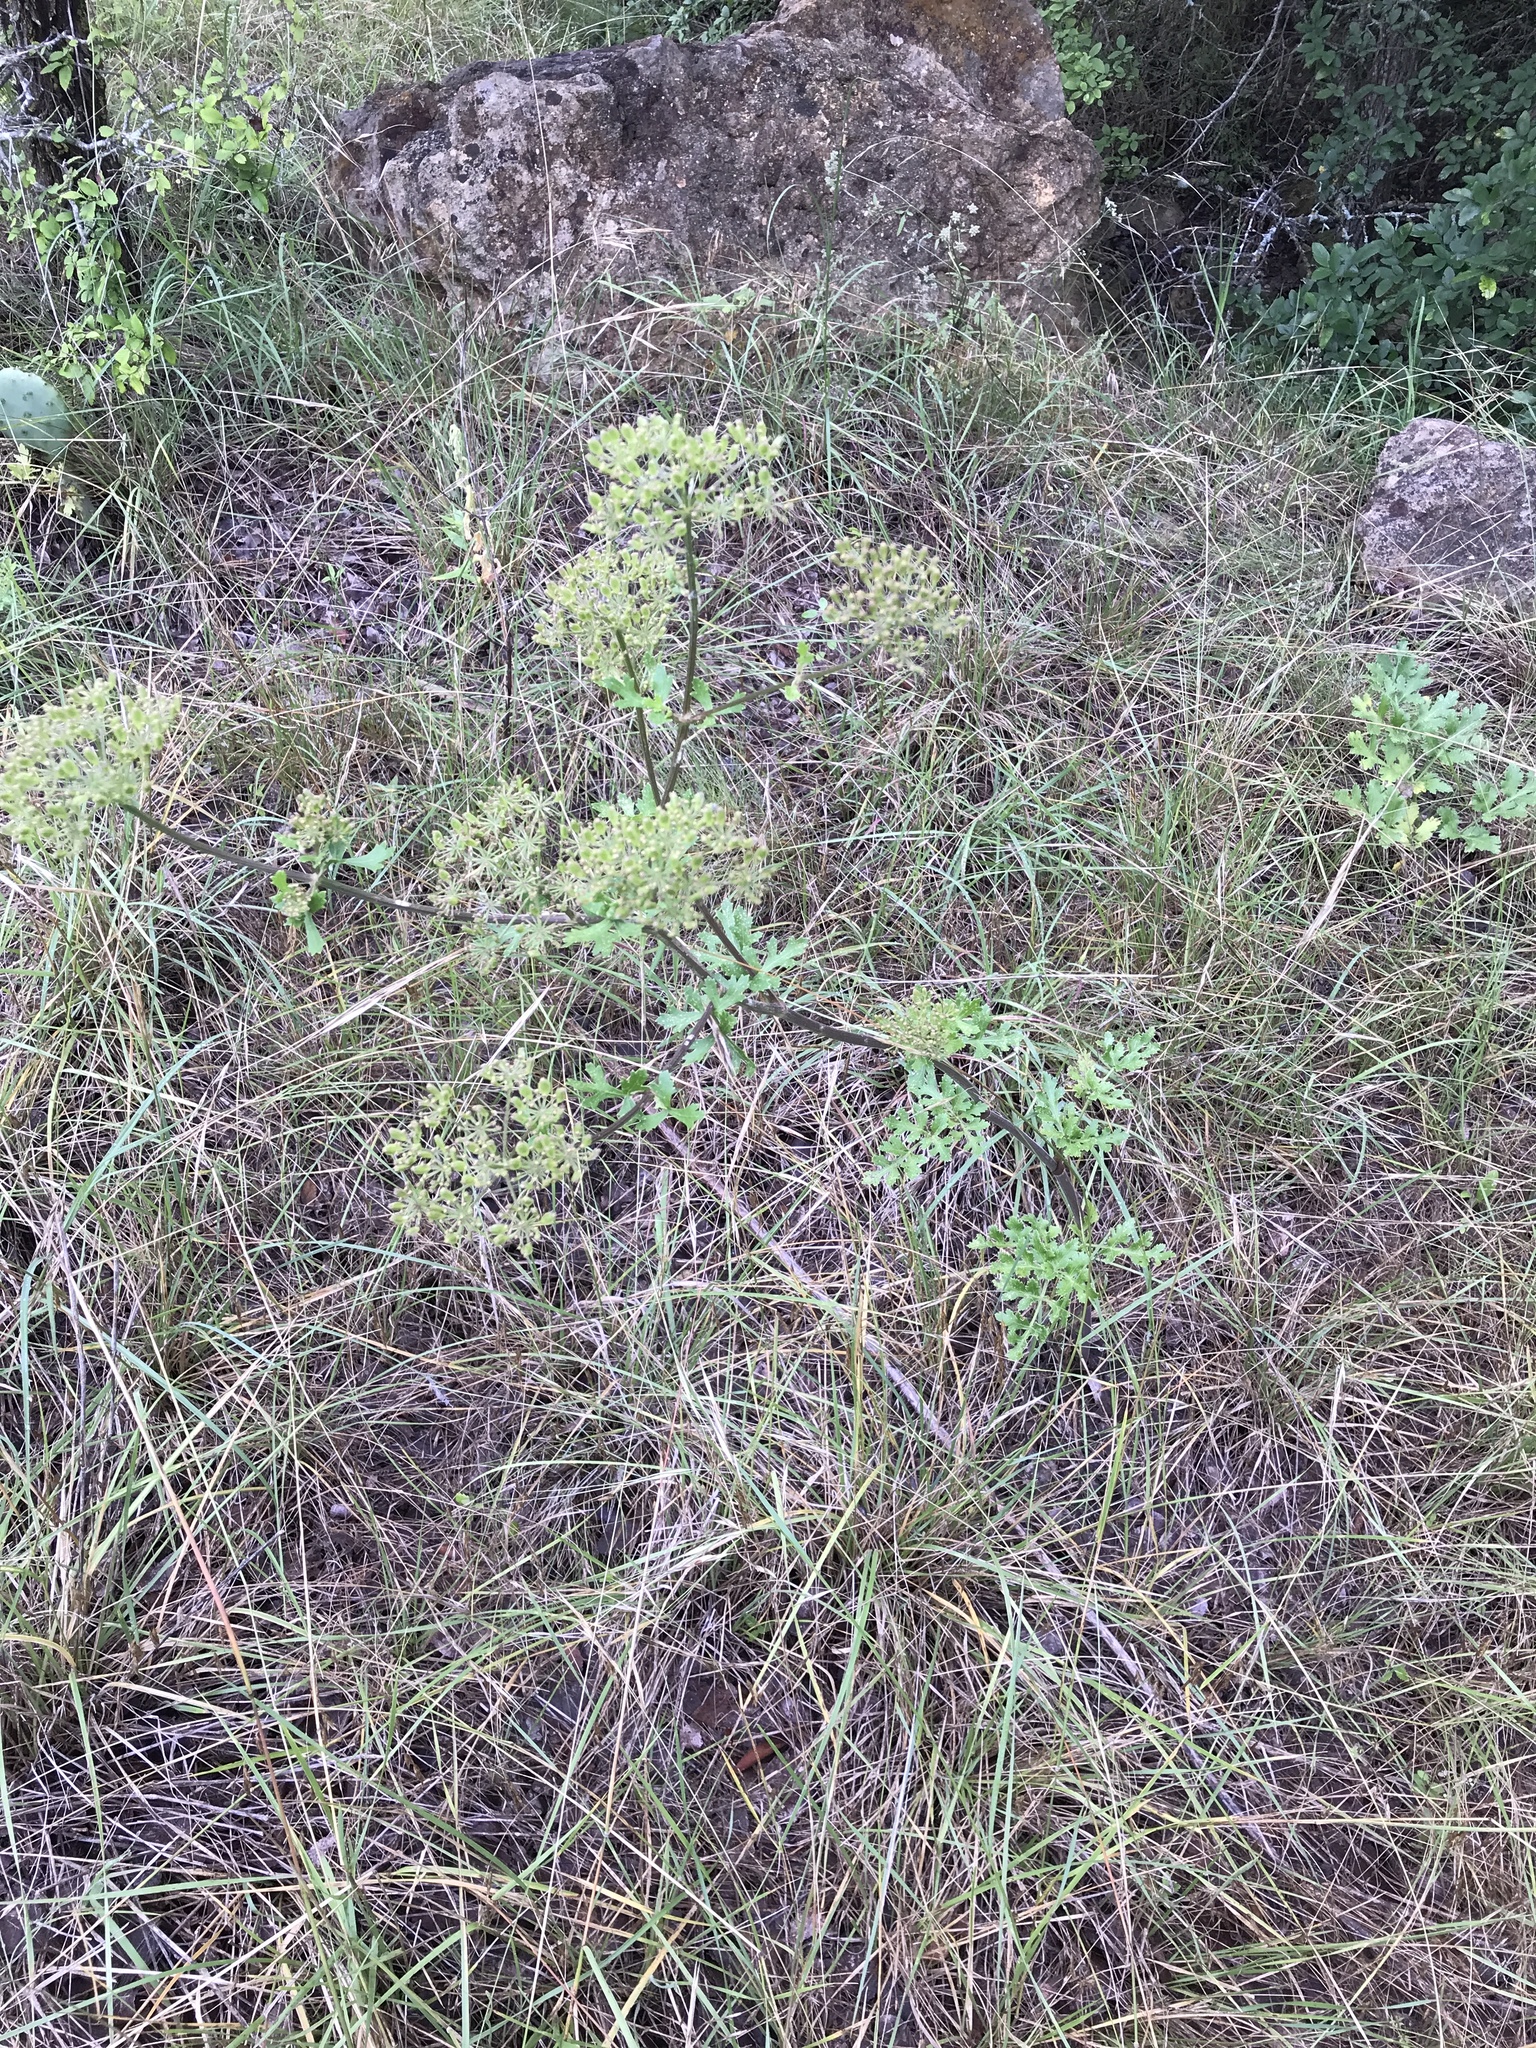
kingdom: Plantae
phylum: Tracheophyta
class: Magnoliopsida
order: Apiales
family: Apiaceae
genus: Polytaenia
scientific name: Polytaenia texana
